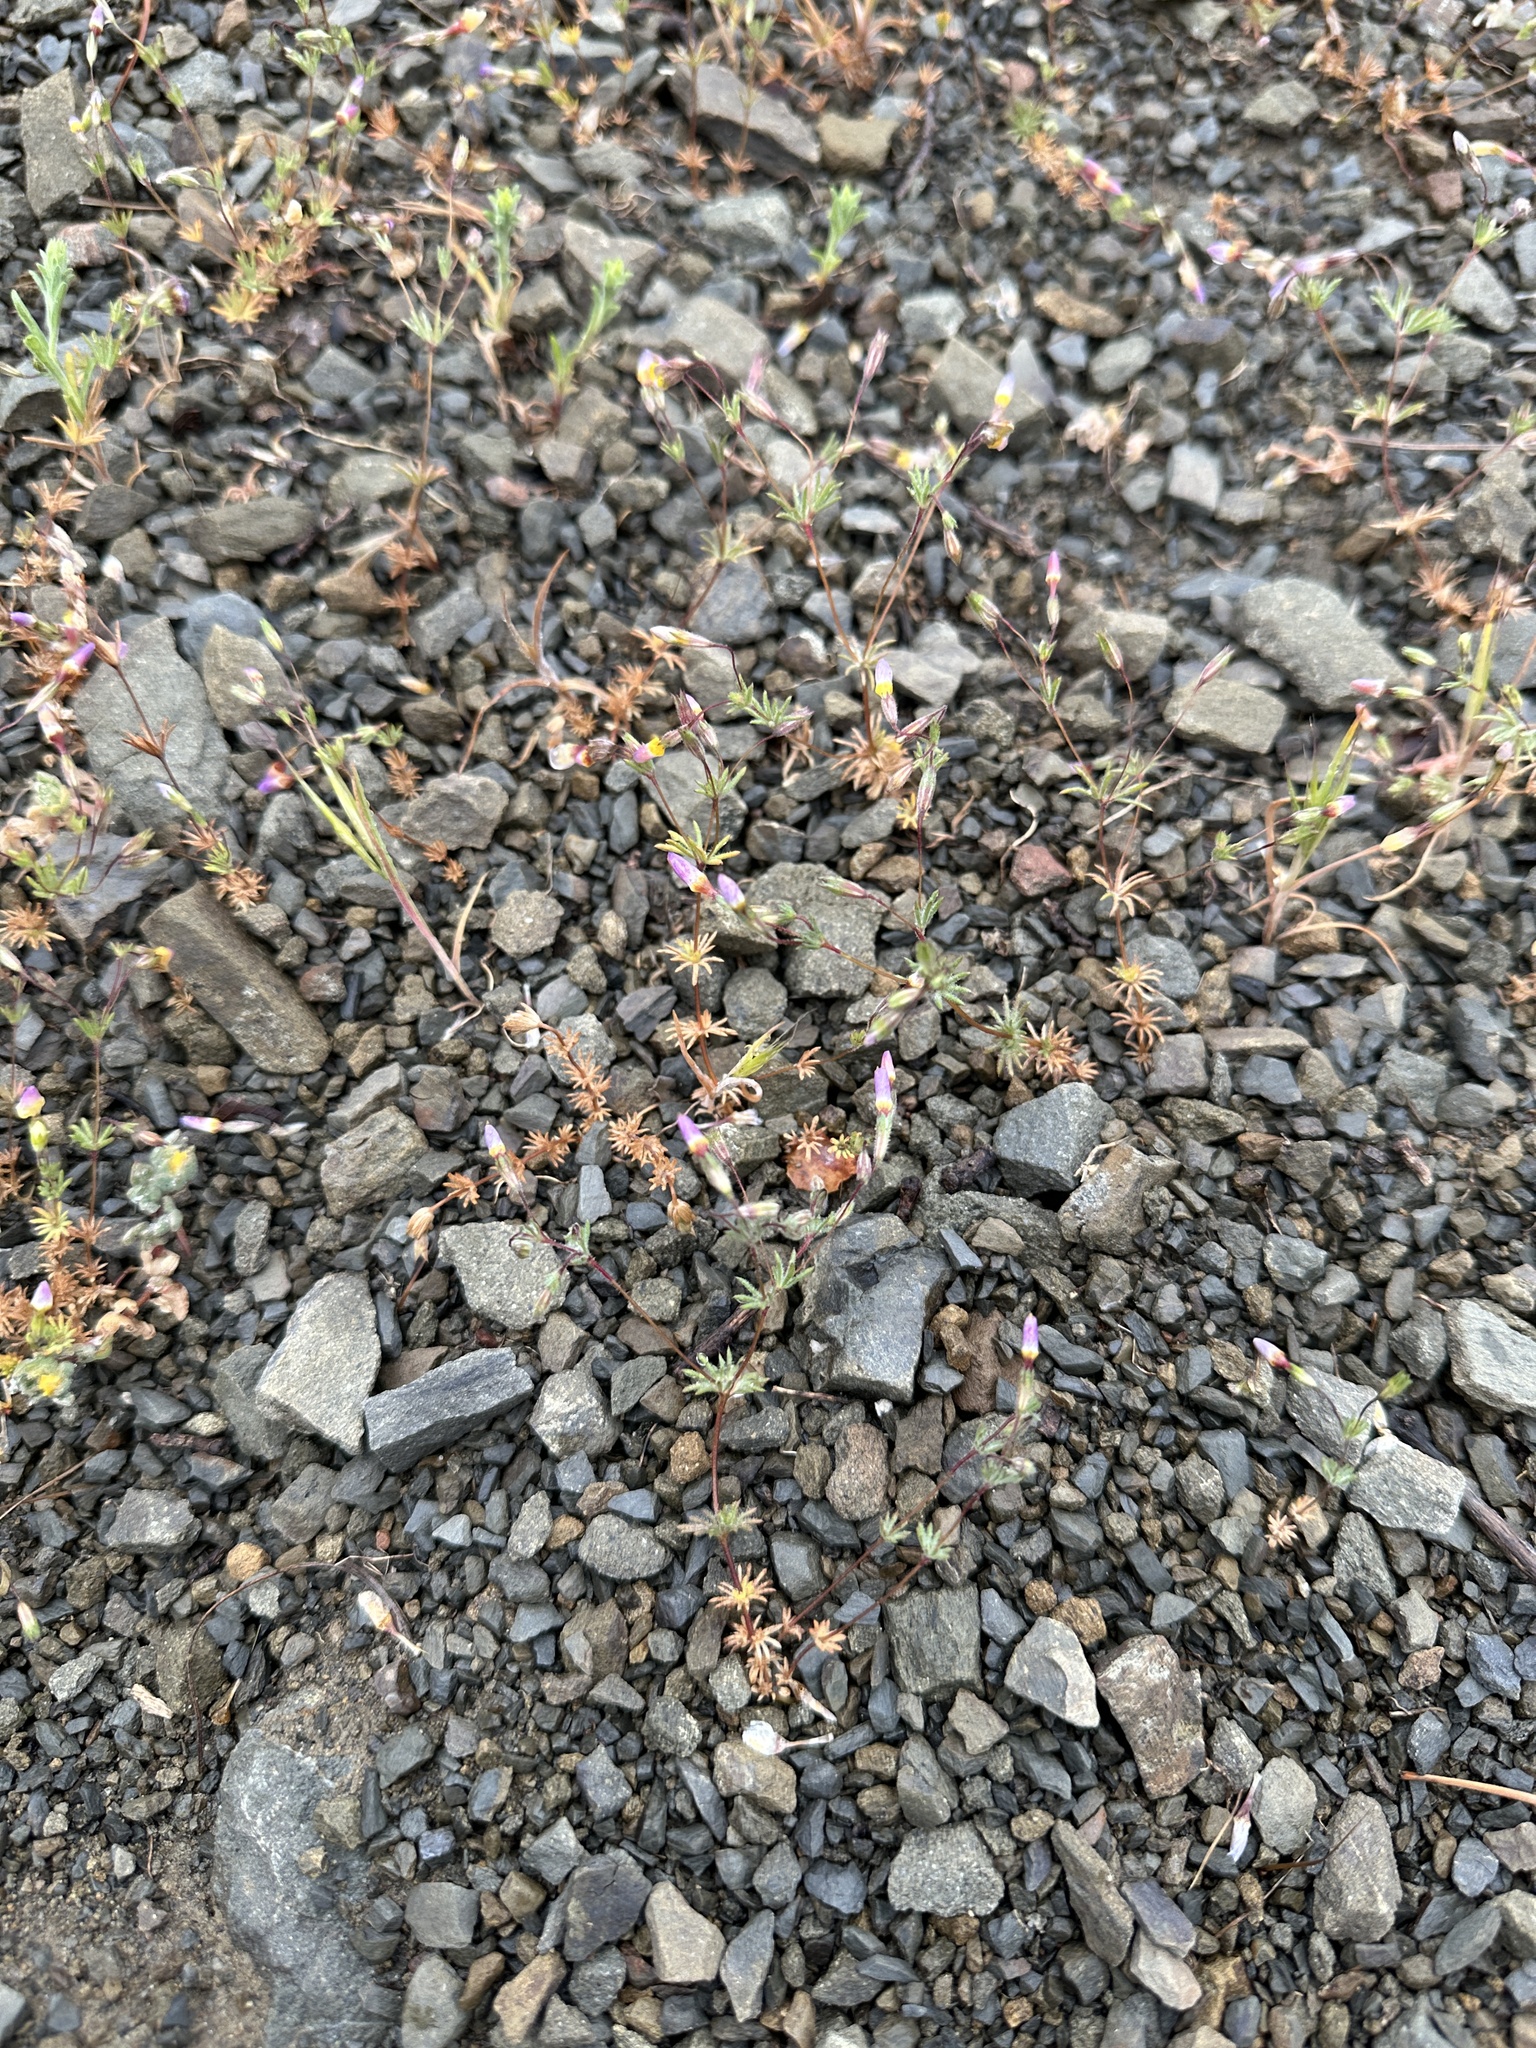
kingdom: Plantae
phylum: Tracheophyta
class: Magnoliopsida
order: Ericales
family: Polemoniaceae
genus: Leptosiphon
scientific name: Leptosiphon ambiguus
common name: Serpentine linanthus
